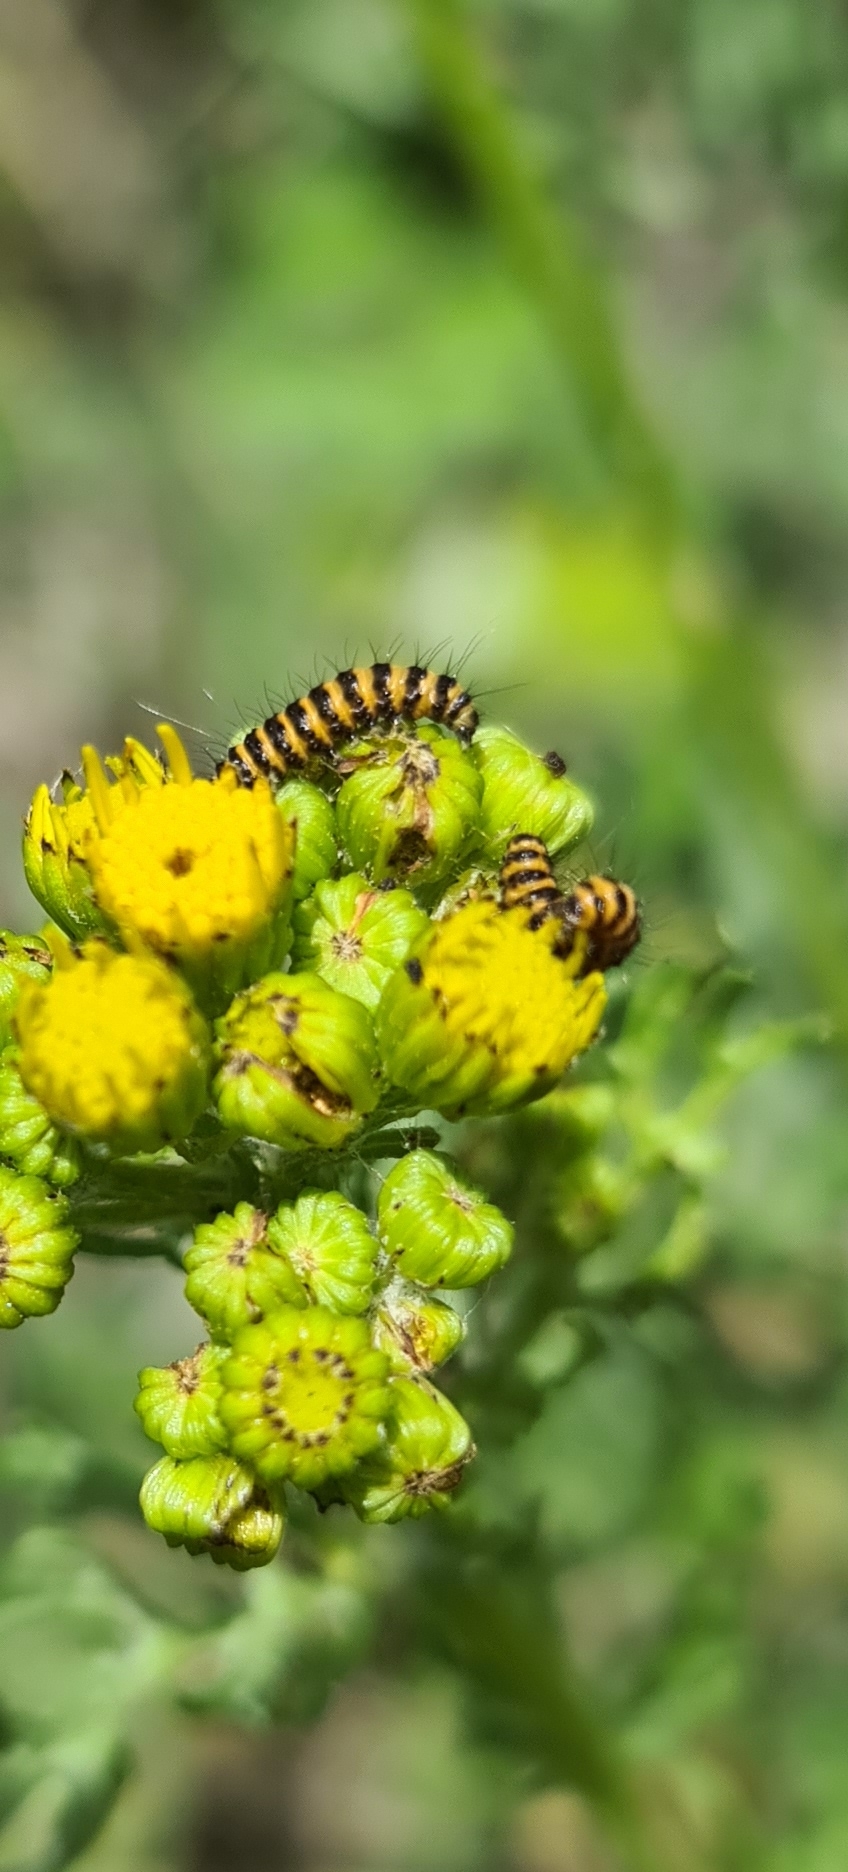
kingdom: Animalia
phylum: Arthropoda
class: Insecta
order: Lepidoptera
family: Erebidae
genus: Tyria
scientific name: Tyria jacobaeae
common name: Cinnabar
